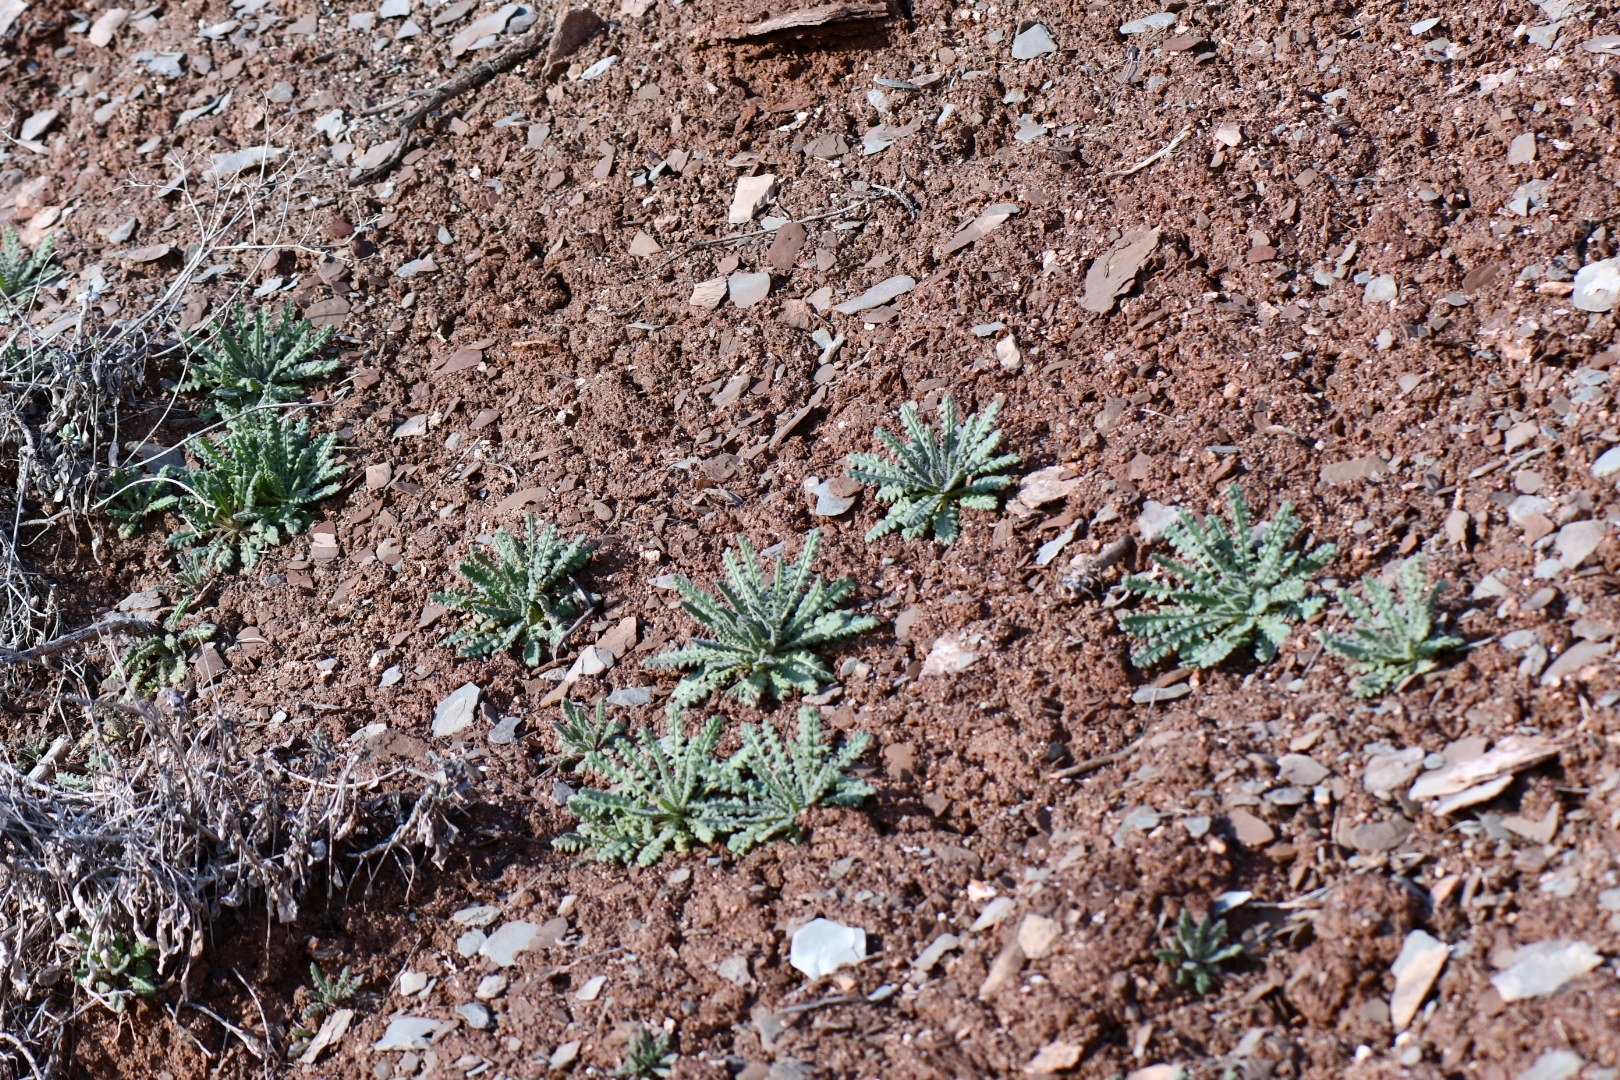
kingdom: Plantae
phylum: Tracheophyta
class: Magnoliopsida
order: Boraginales
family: Hydrophyllaceae
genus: Phacelia
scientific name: Phacelia palmeri
